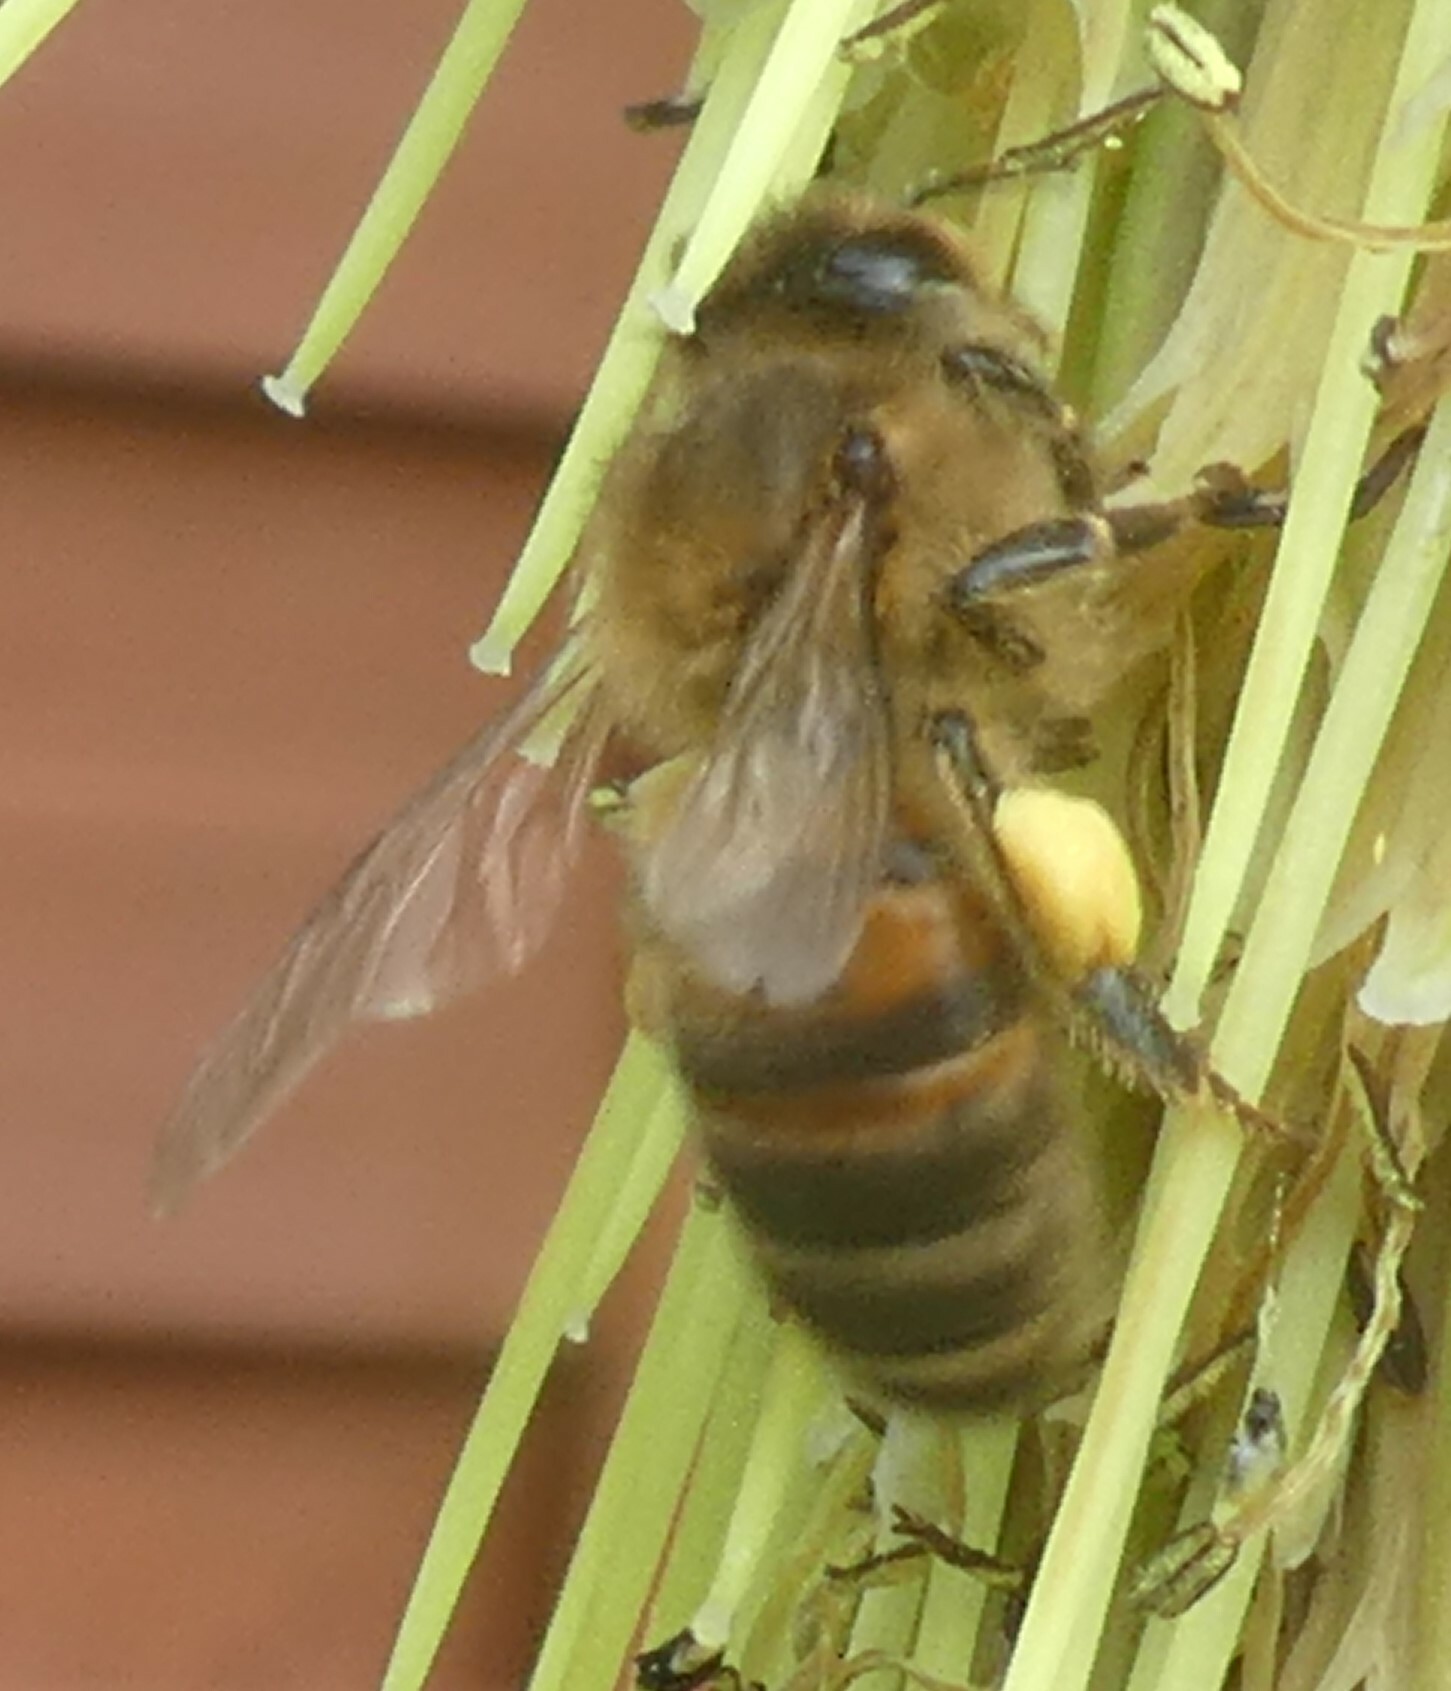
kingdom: Animalia
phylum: Arthropoda
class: Insecta
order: Hymenoptera
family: Apidae
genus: Apis
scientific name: Apis mellifera
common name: Honey bee
